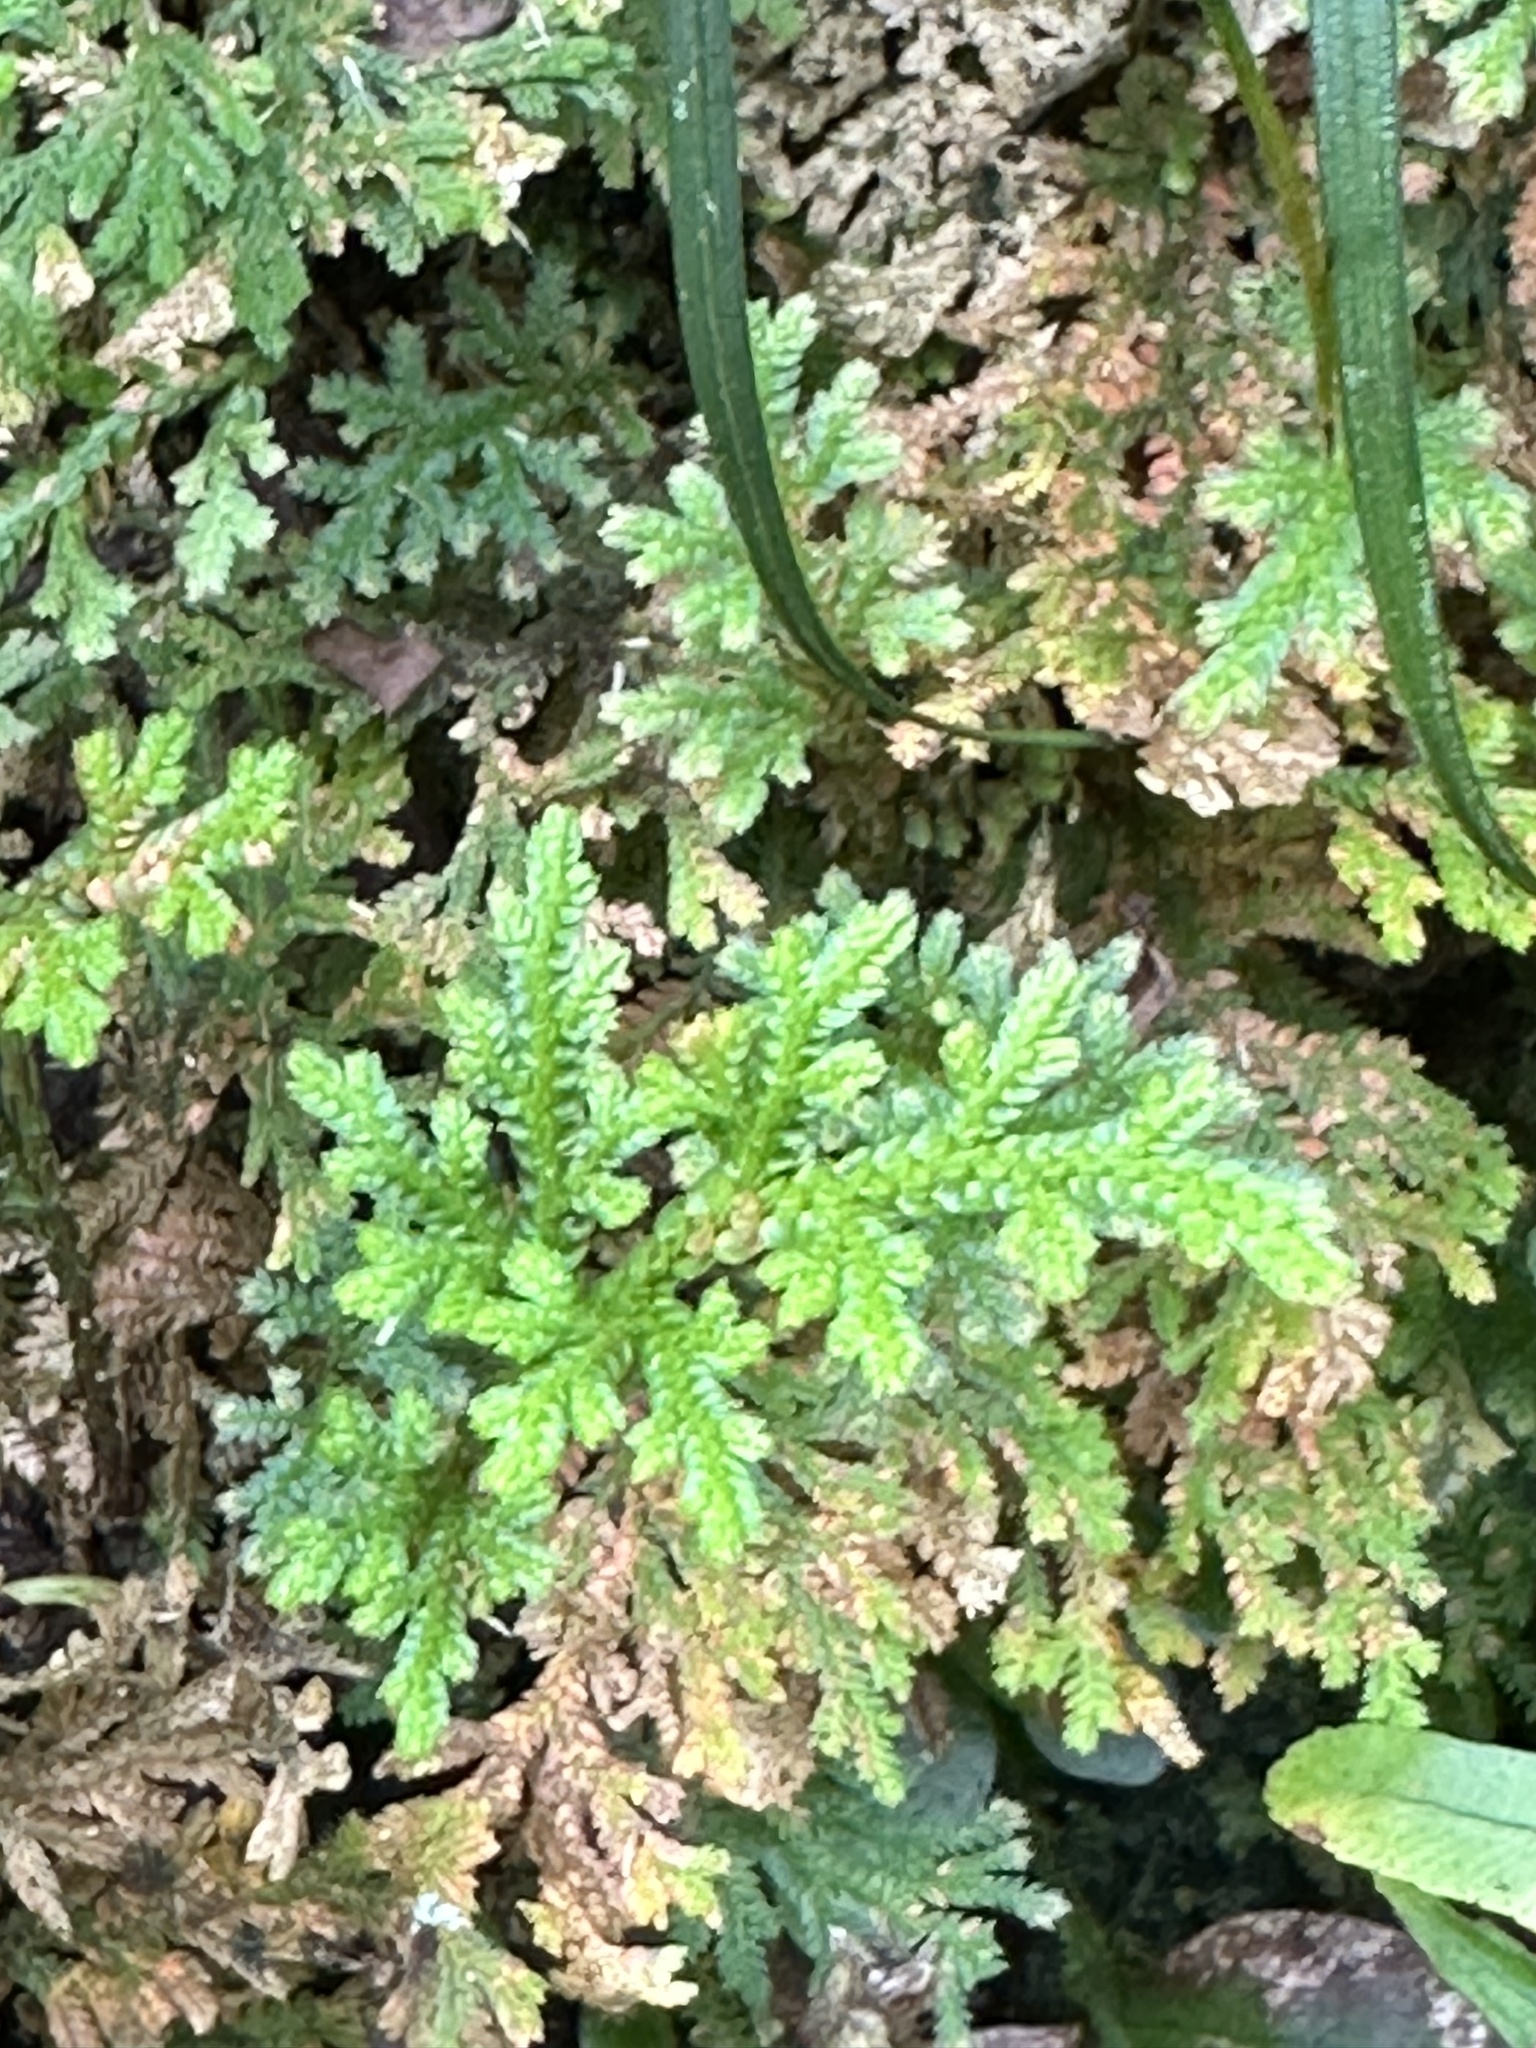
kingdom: Plantae
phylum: Tracheophyta
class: Lycopodiopsida
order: Selaginellales
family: Selaginellaceae
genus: Selaginella
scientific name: Selaginella moellendorffii
